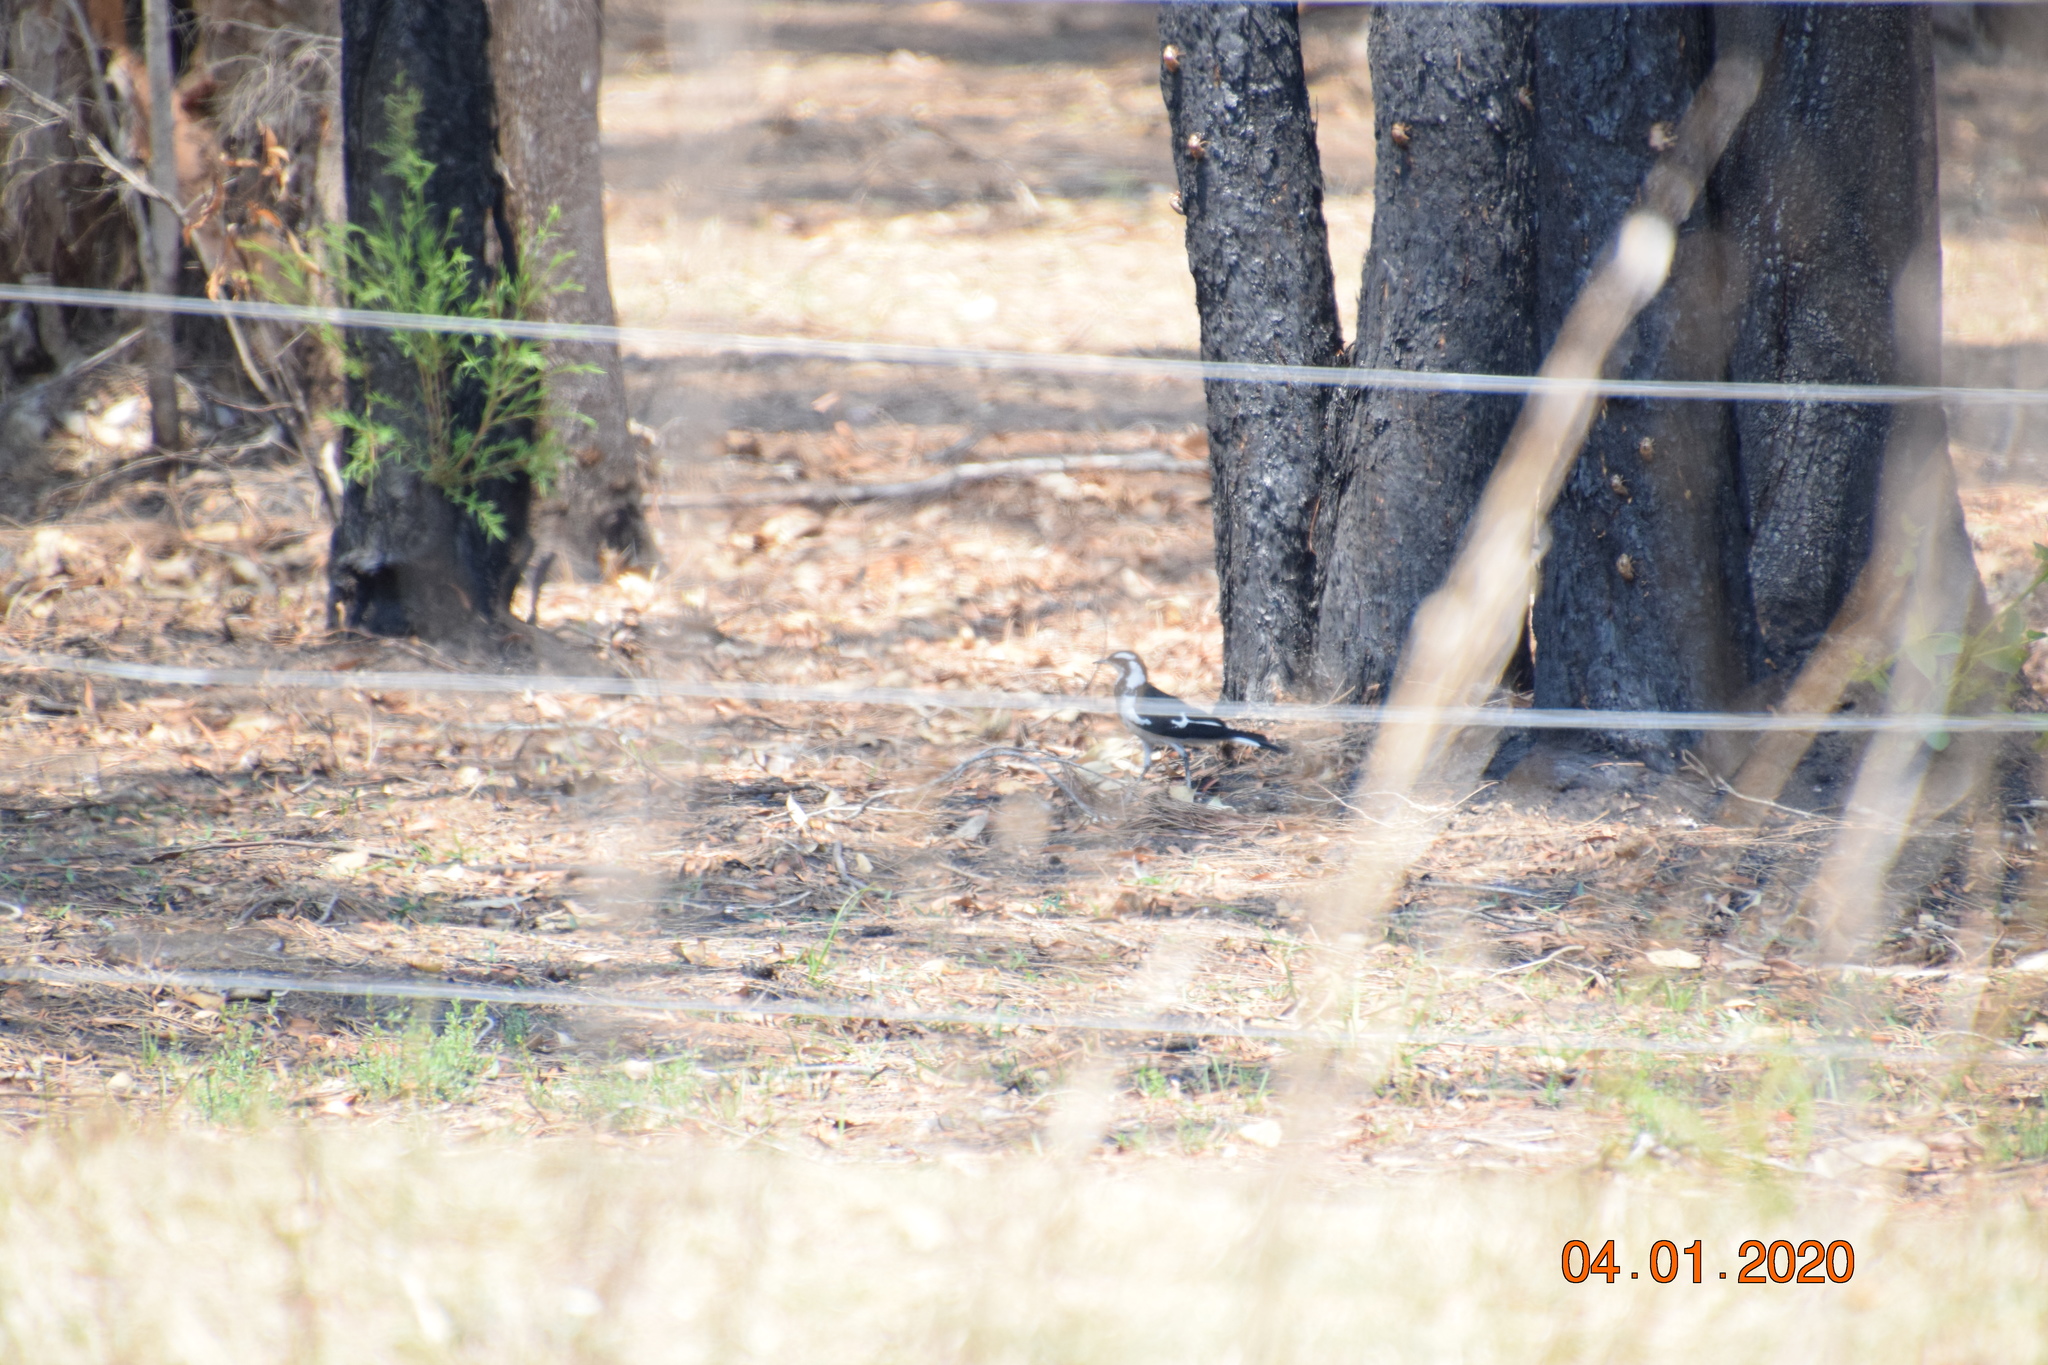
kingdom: Animalia
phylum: Chordata
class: Aves
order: Passeriformes
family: Monarchidae
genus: Grallina
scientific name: Grallina cyanoleuca
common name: Magpie-lark
